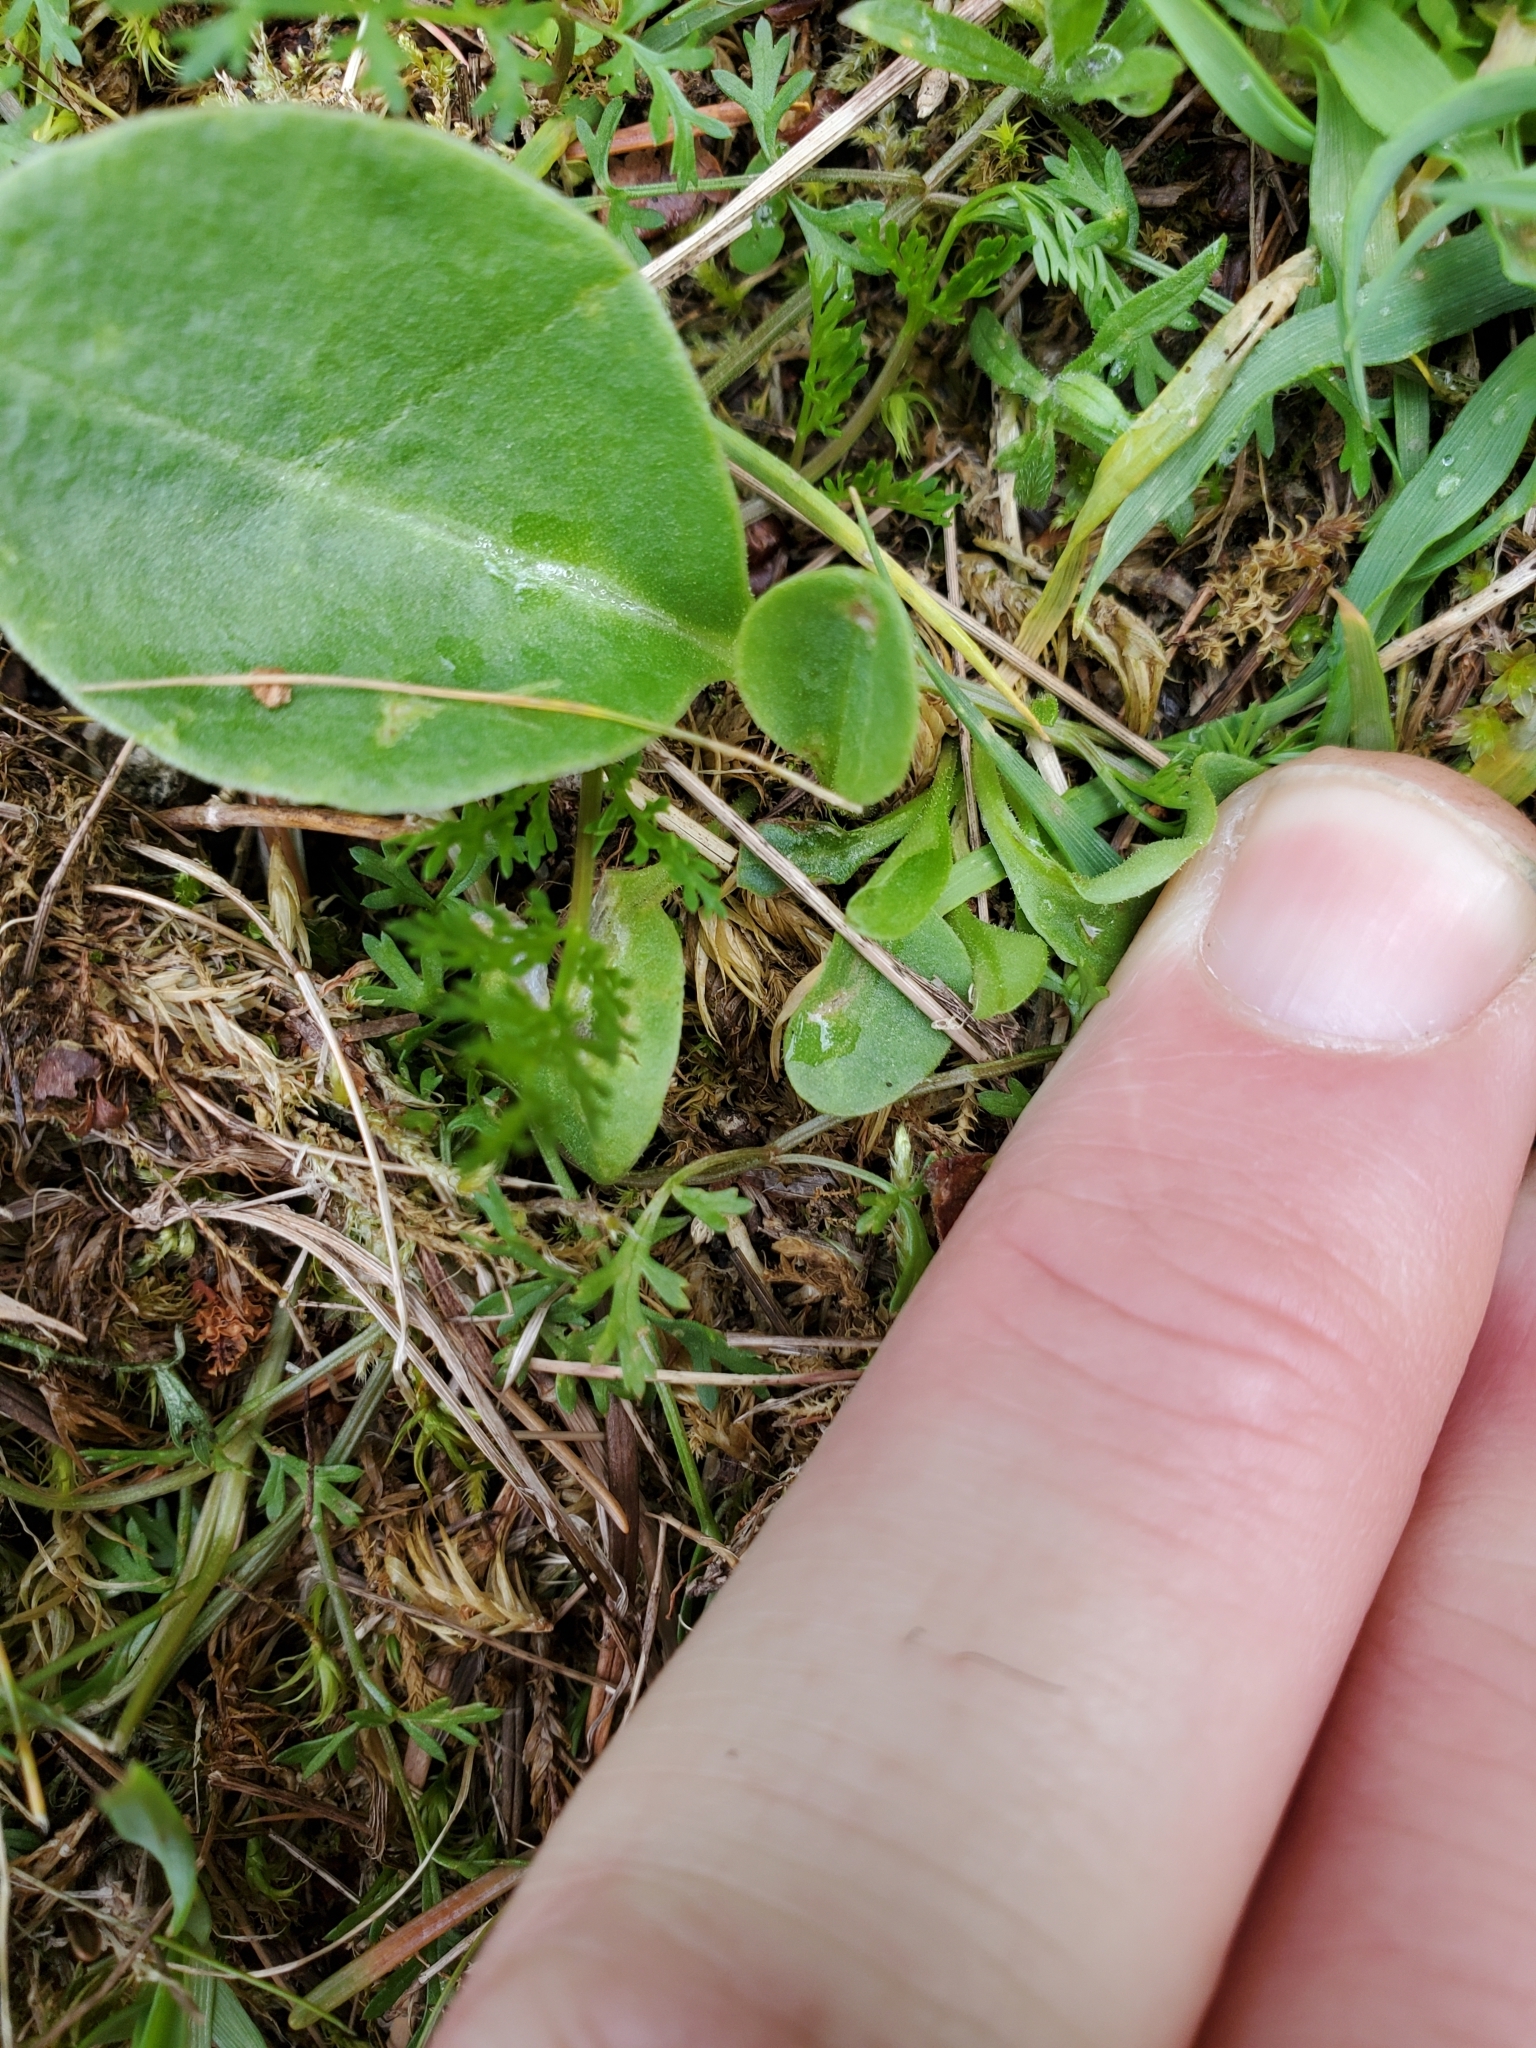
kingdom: Plantae
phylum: Tracheophyta
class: Magnoliopsida
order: Ericales
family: Primulaceae
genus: Dodecatheon
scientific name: Dodecatheon hendersonii
